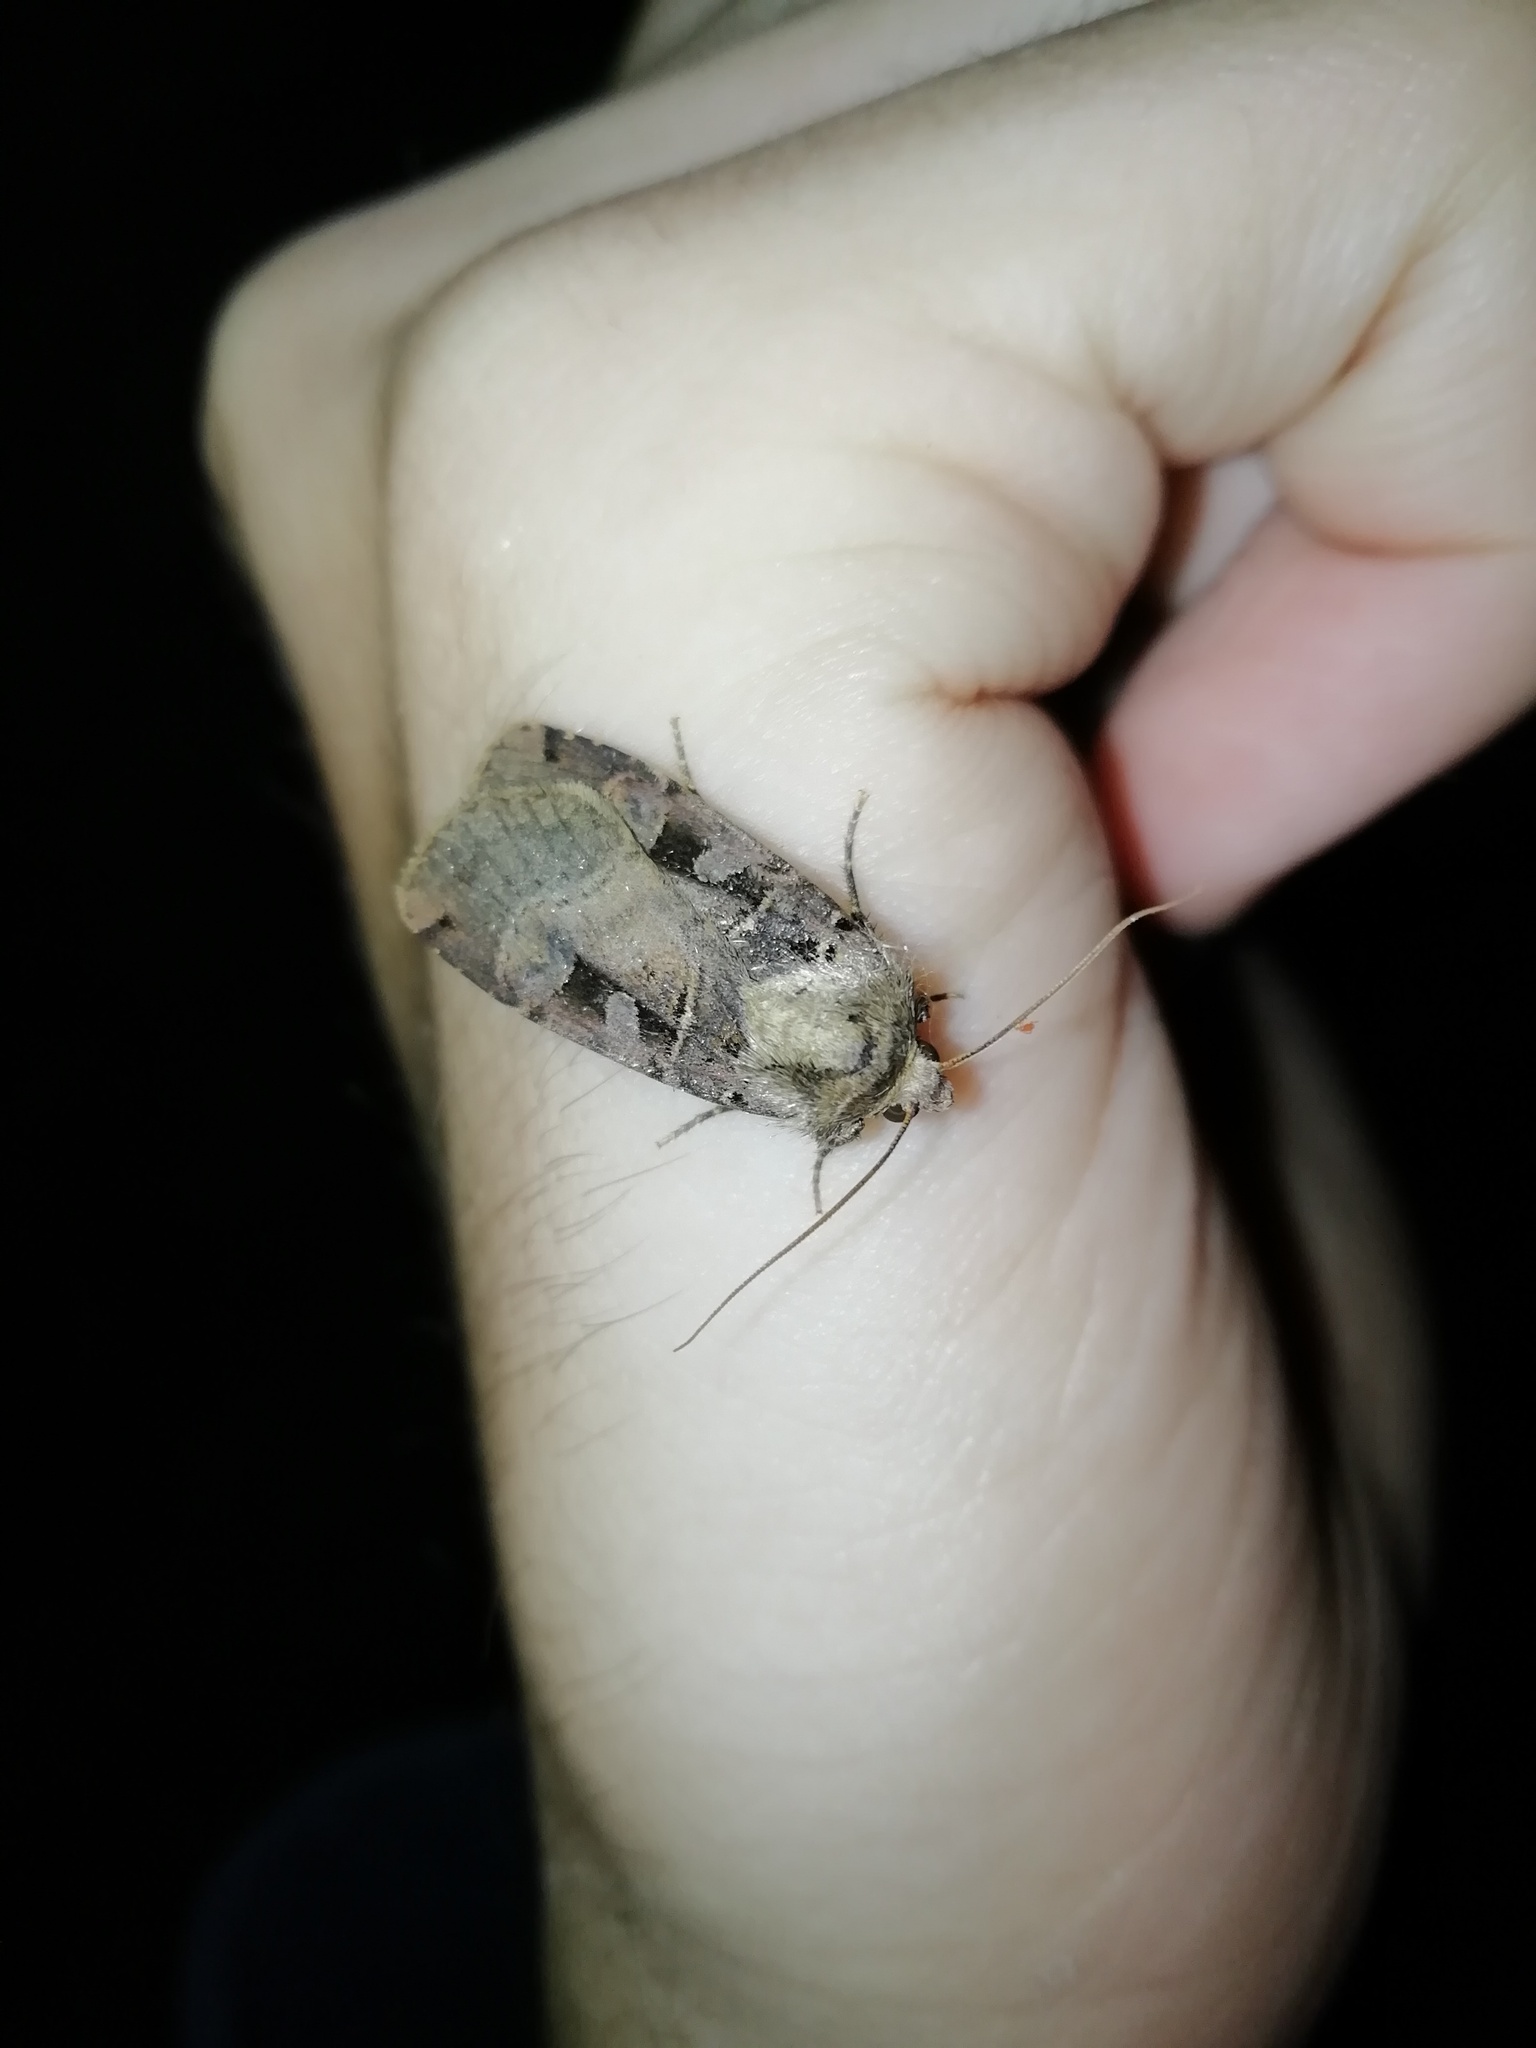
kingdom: Animalia
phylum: Arthropoda
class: Insecta
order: Lepidoptera
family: Noctuidae
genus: Xestia
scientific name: Xestia triangulum
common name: Double square-spot
